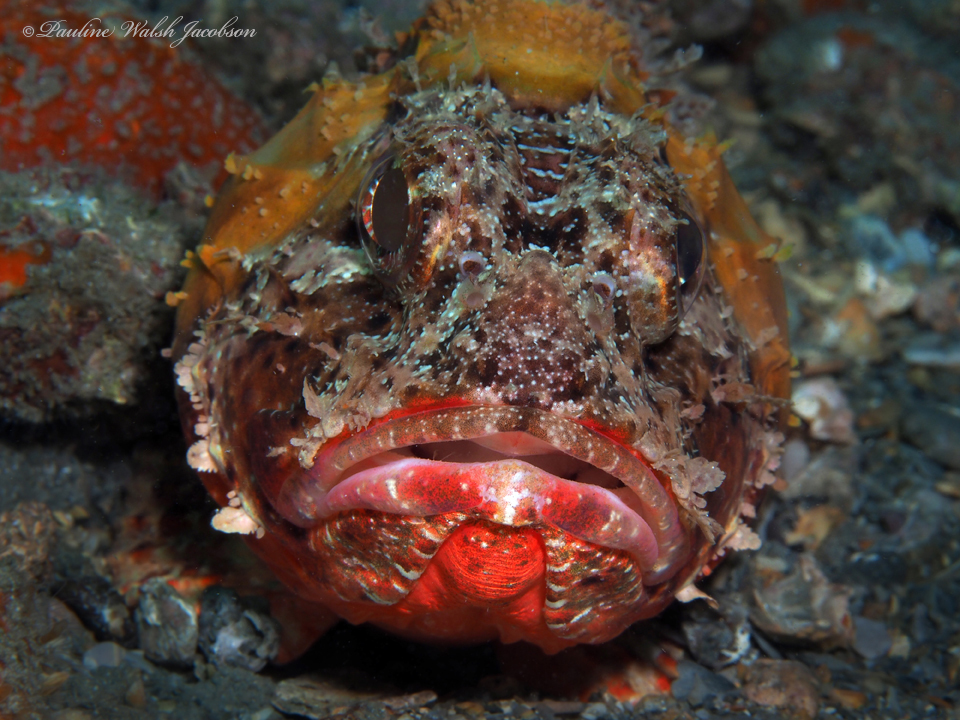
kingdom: Animalia
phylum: Chordata
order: Scorpaeniformes
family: Scorpaenidae
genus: Scorpaena
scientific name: Scorpaena brasiliensis
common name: Barbfish
